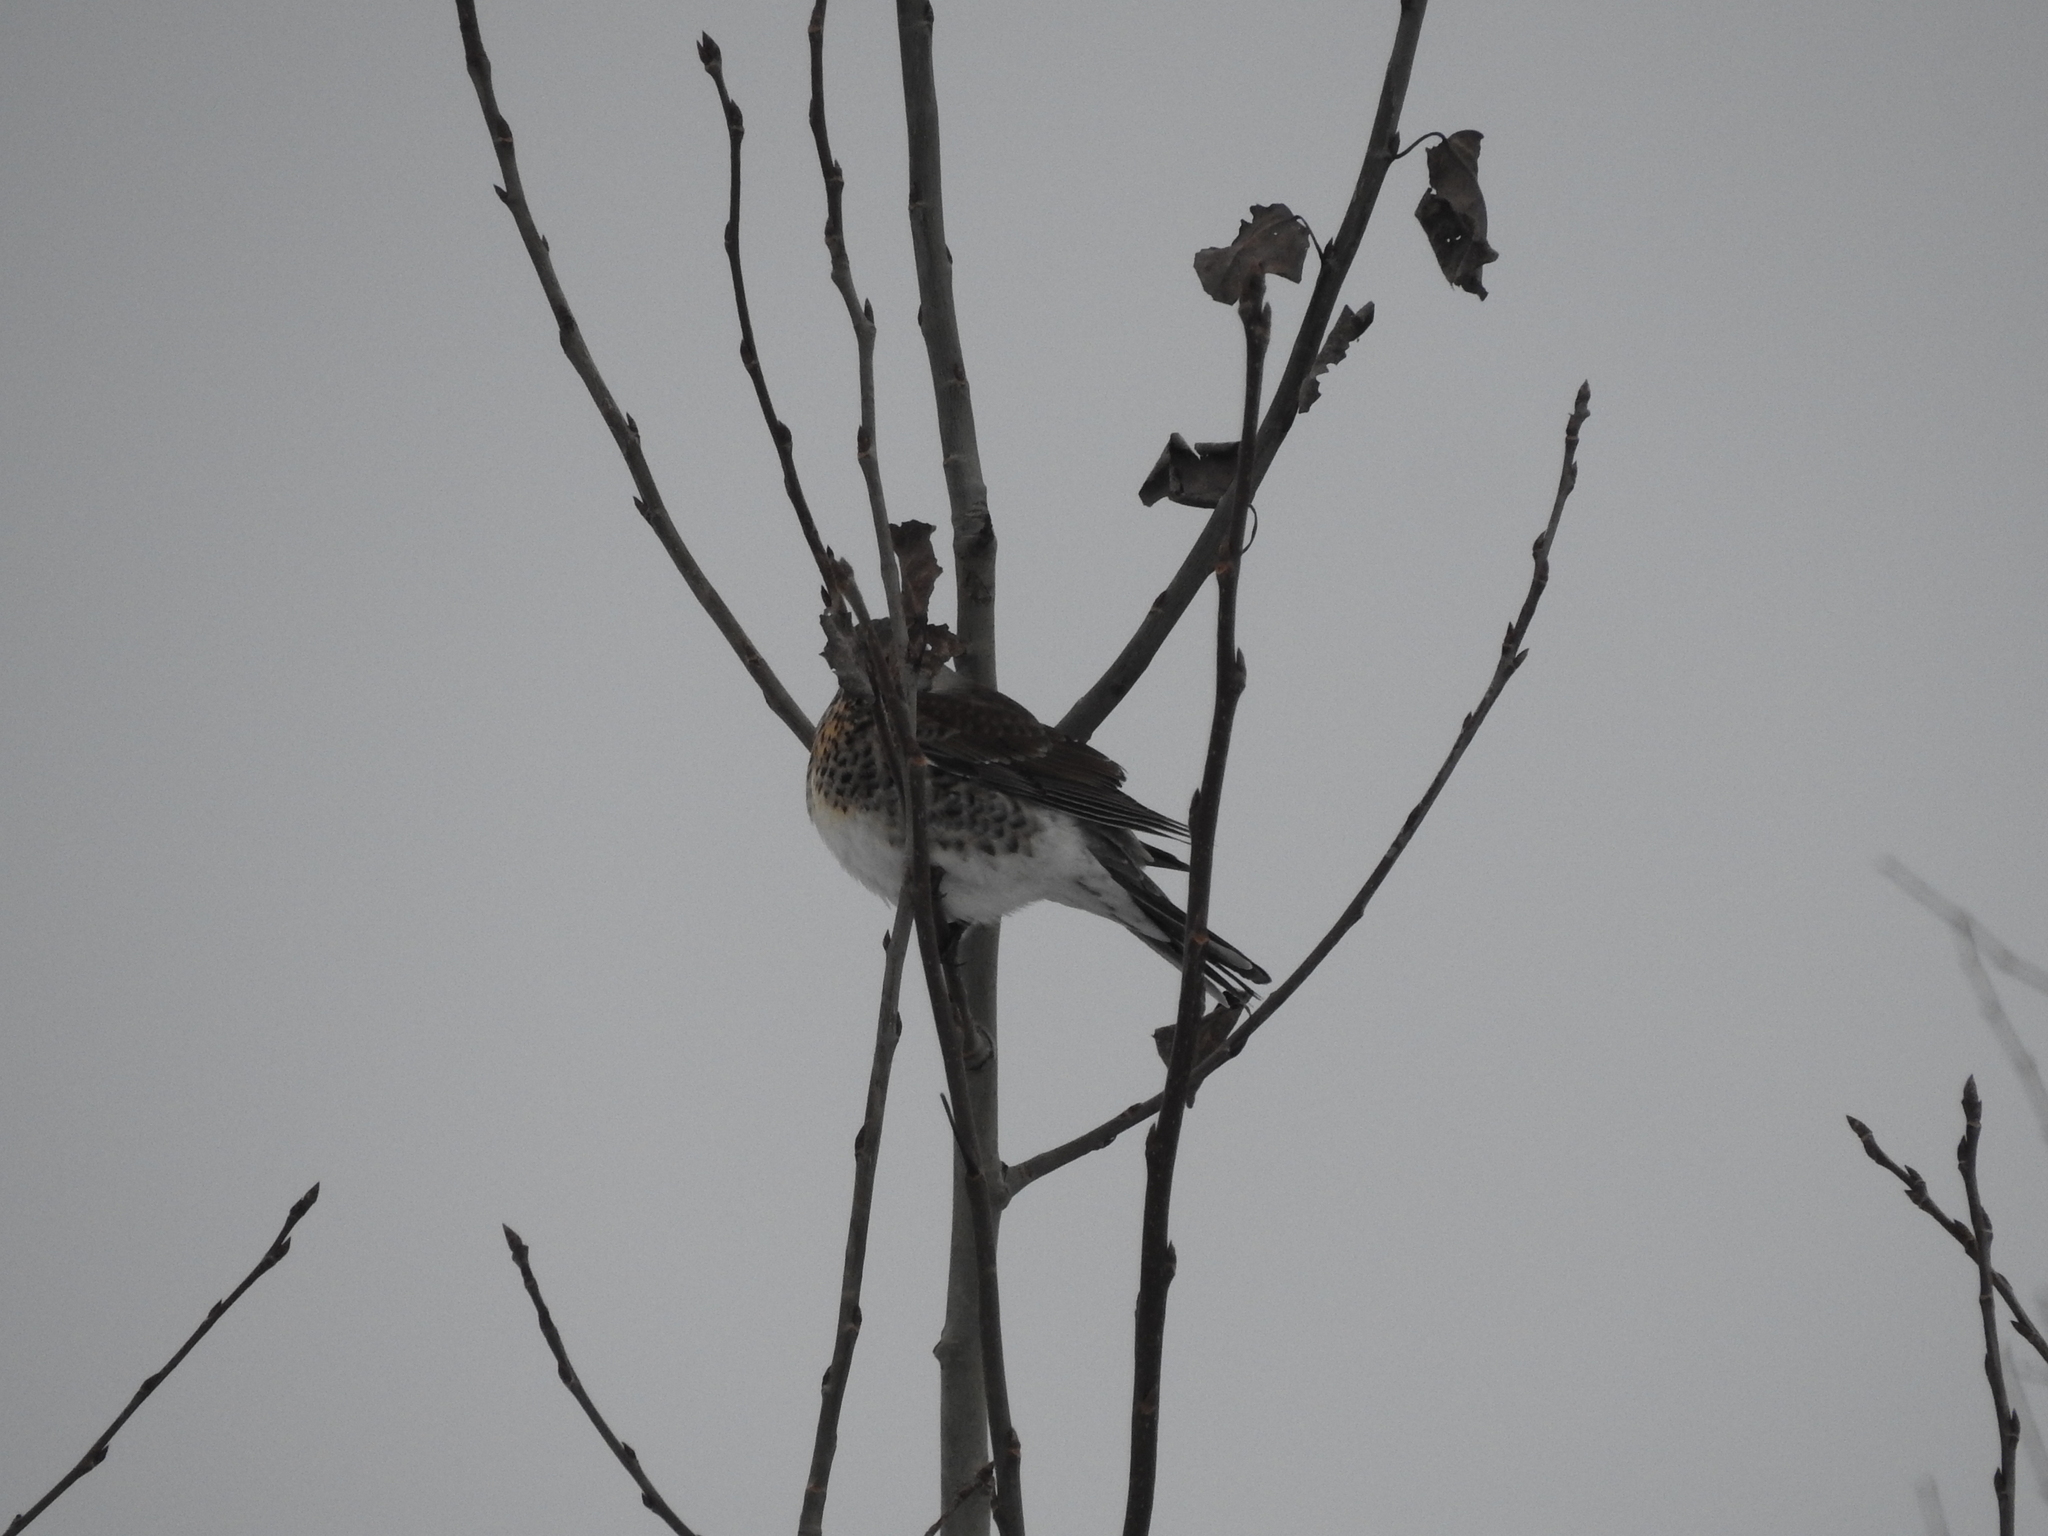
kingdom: Animalia
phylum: Chordata
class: Aves
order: Passeriformes
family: Turdidae
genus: Turdus
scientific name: Turdus pilaris
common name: Fieldfare
